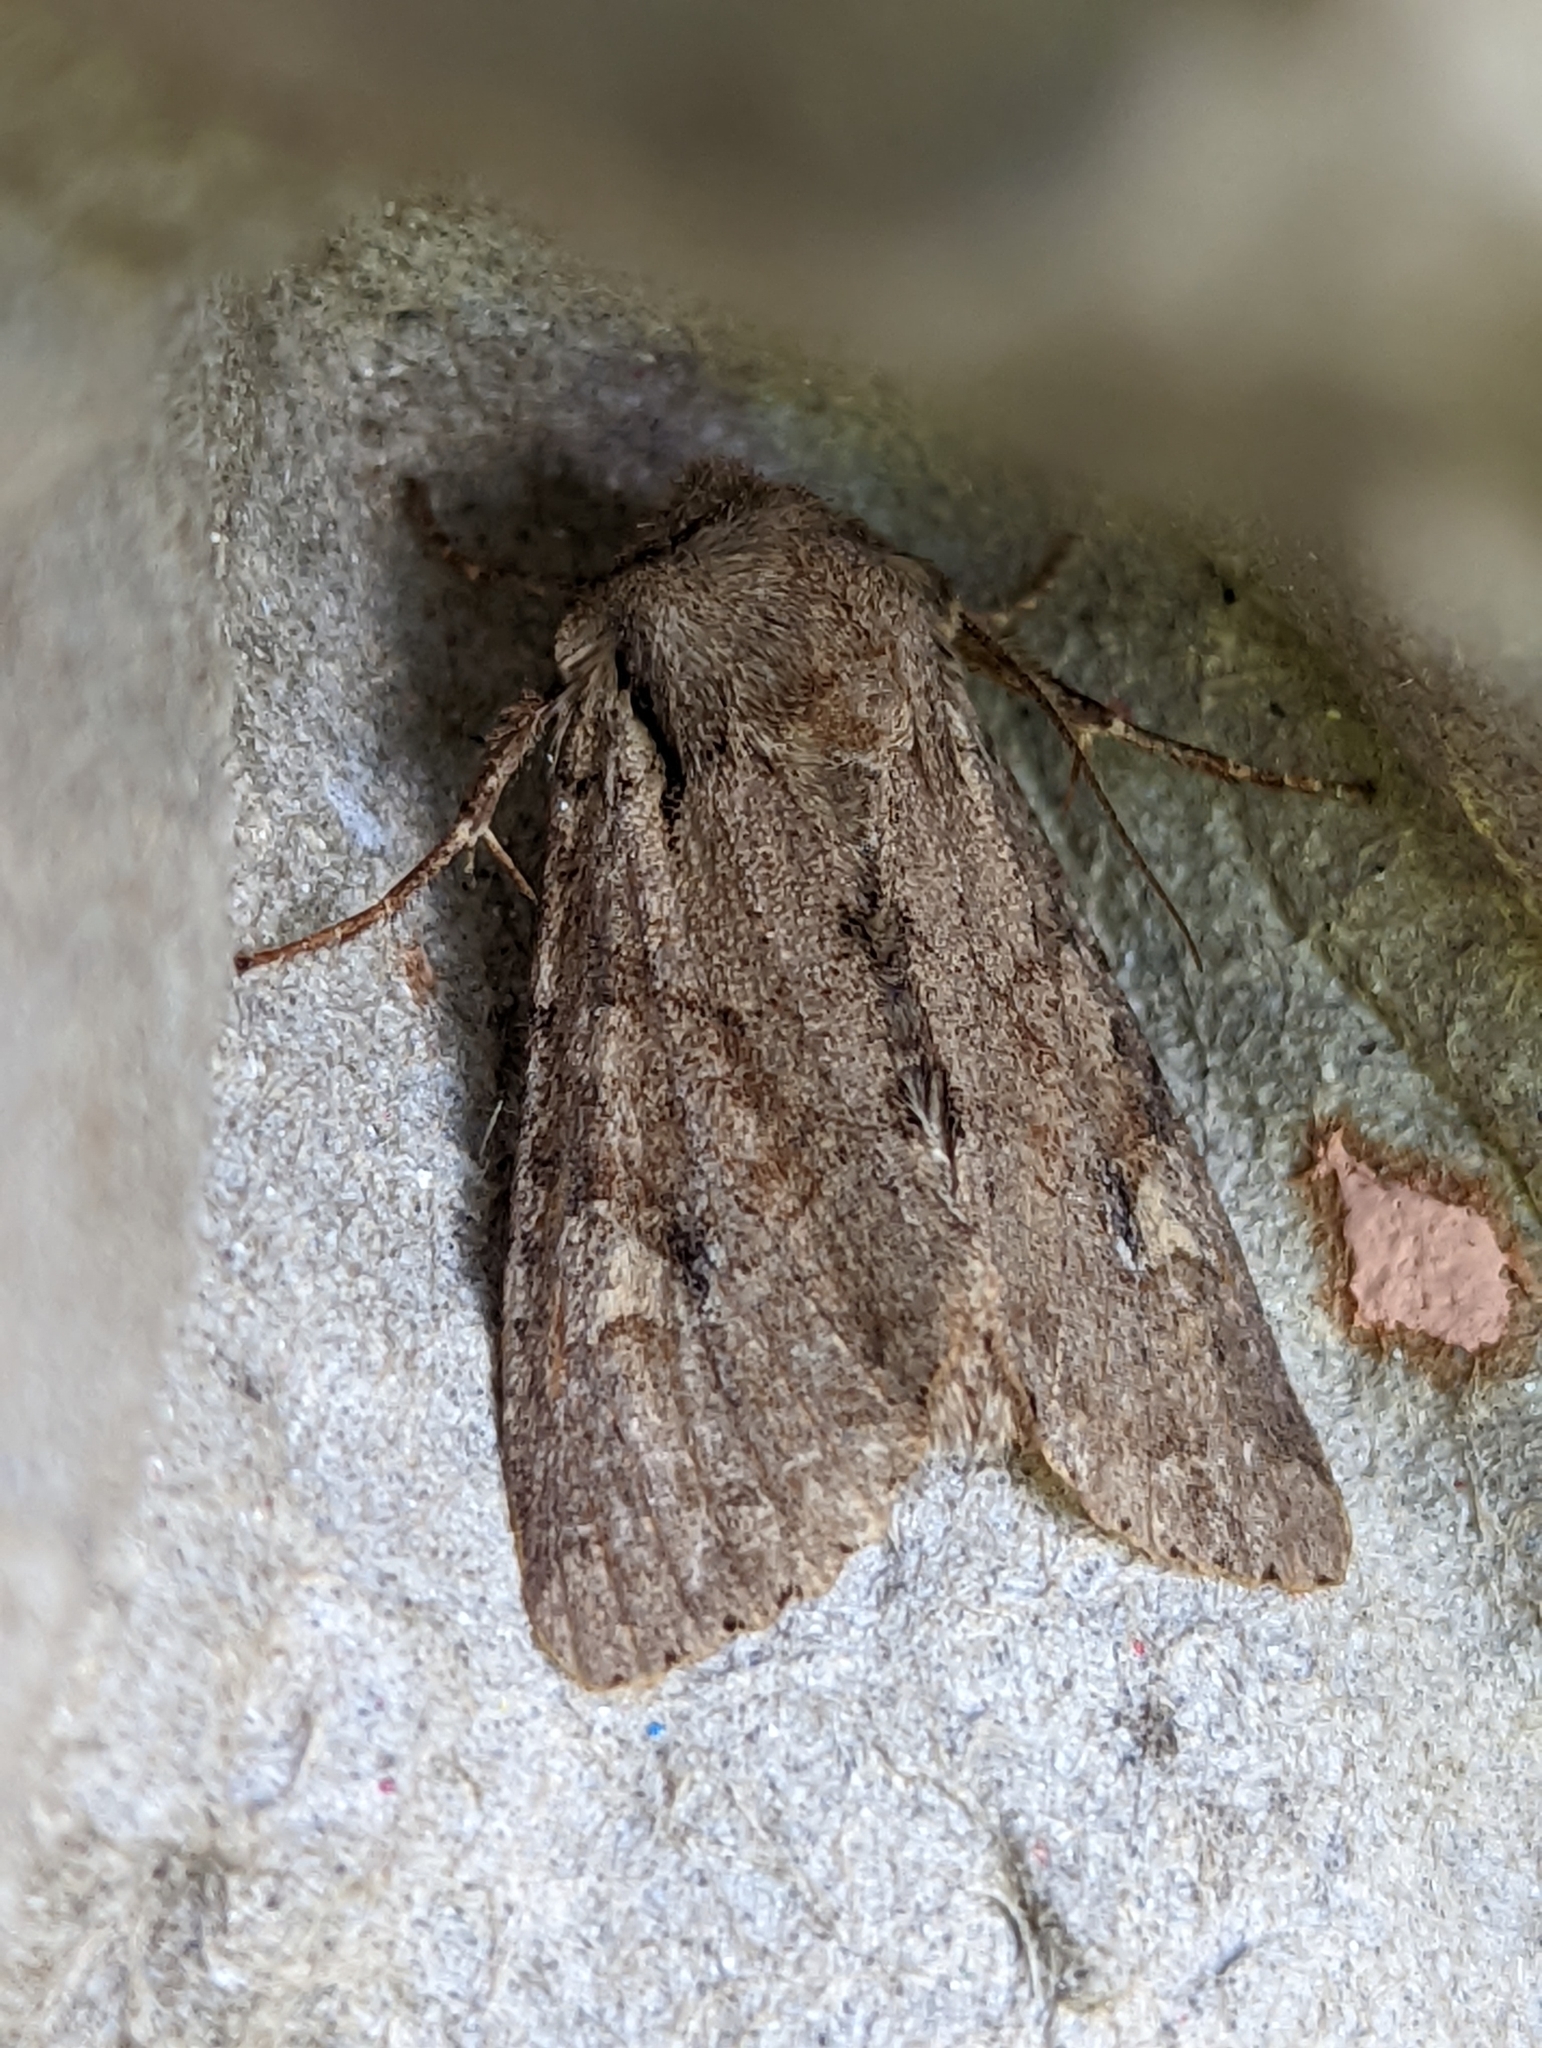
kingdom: Animalia
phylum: Arthropoda
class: Insecta
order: Lepidoptera
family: Noctuidae
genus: Apamea
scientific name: Apamea sordens
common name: Rustic shoulder-knot
